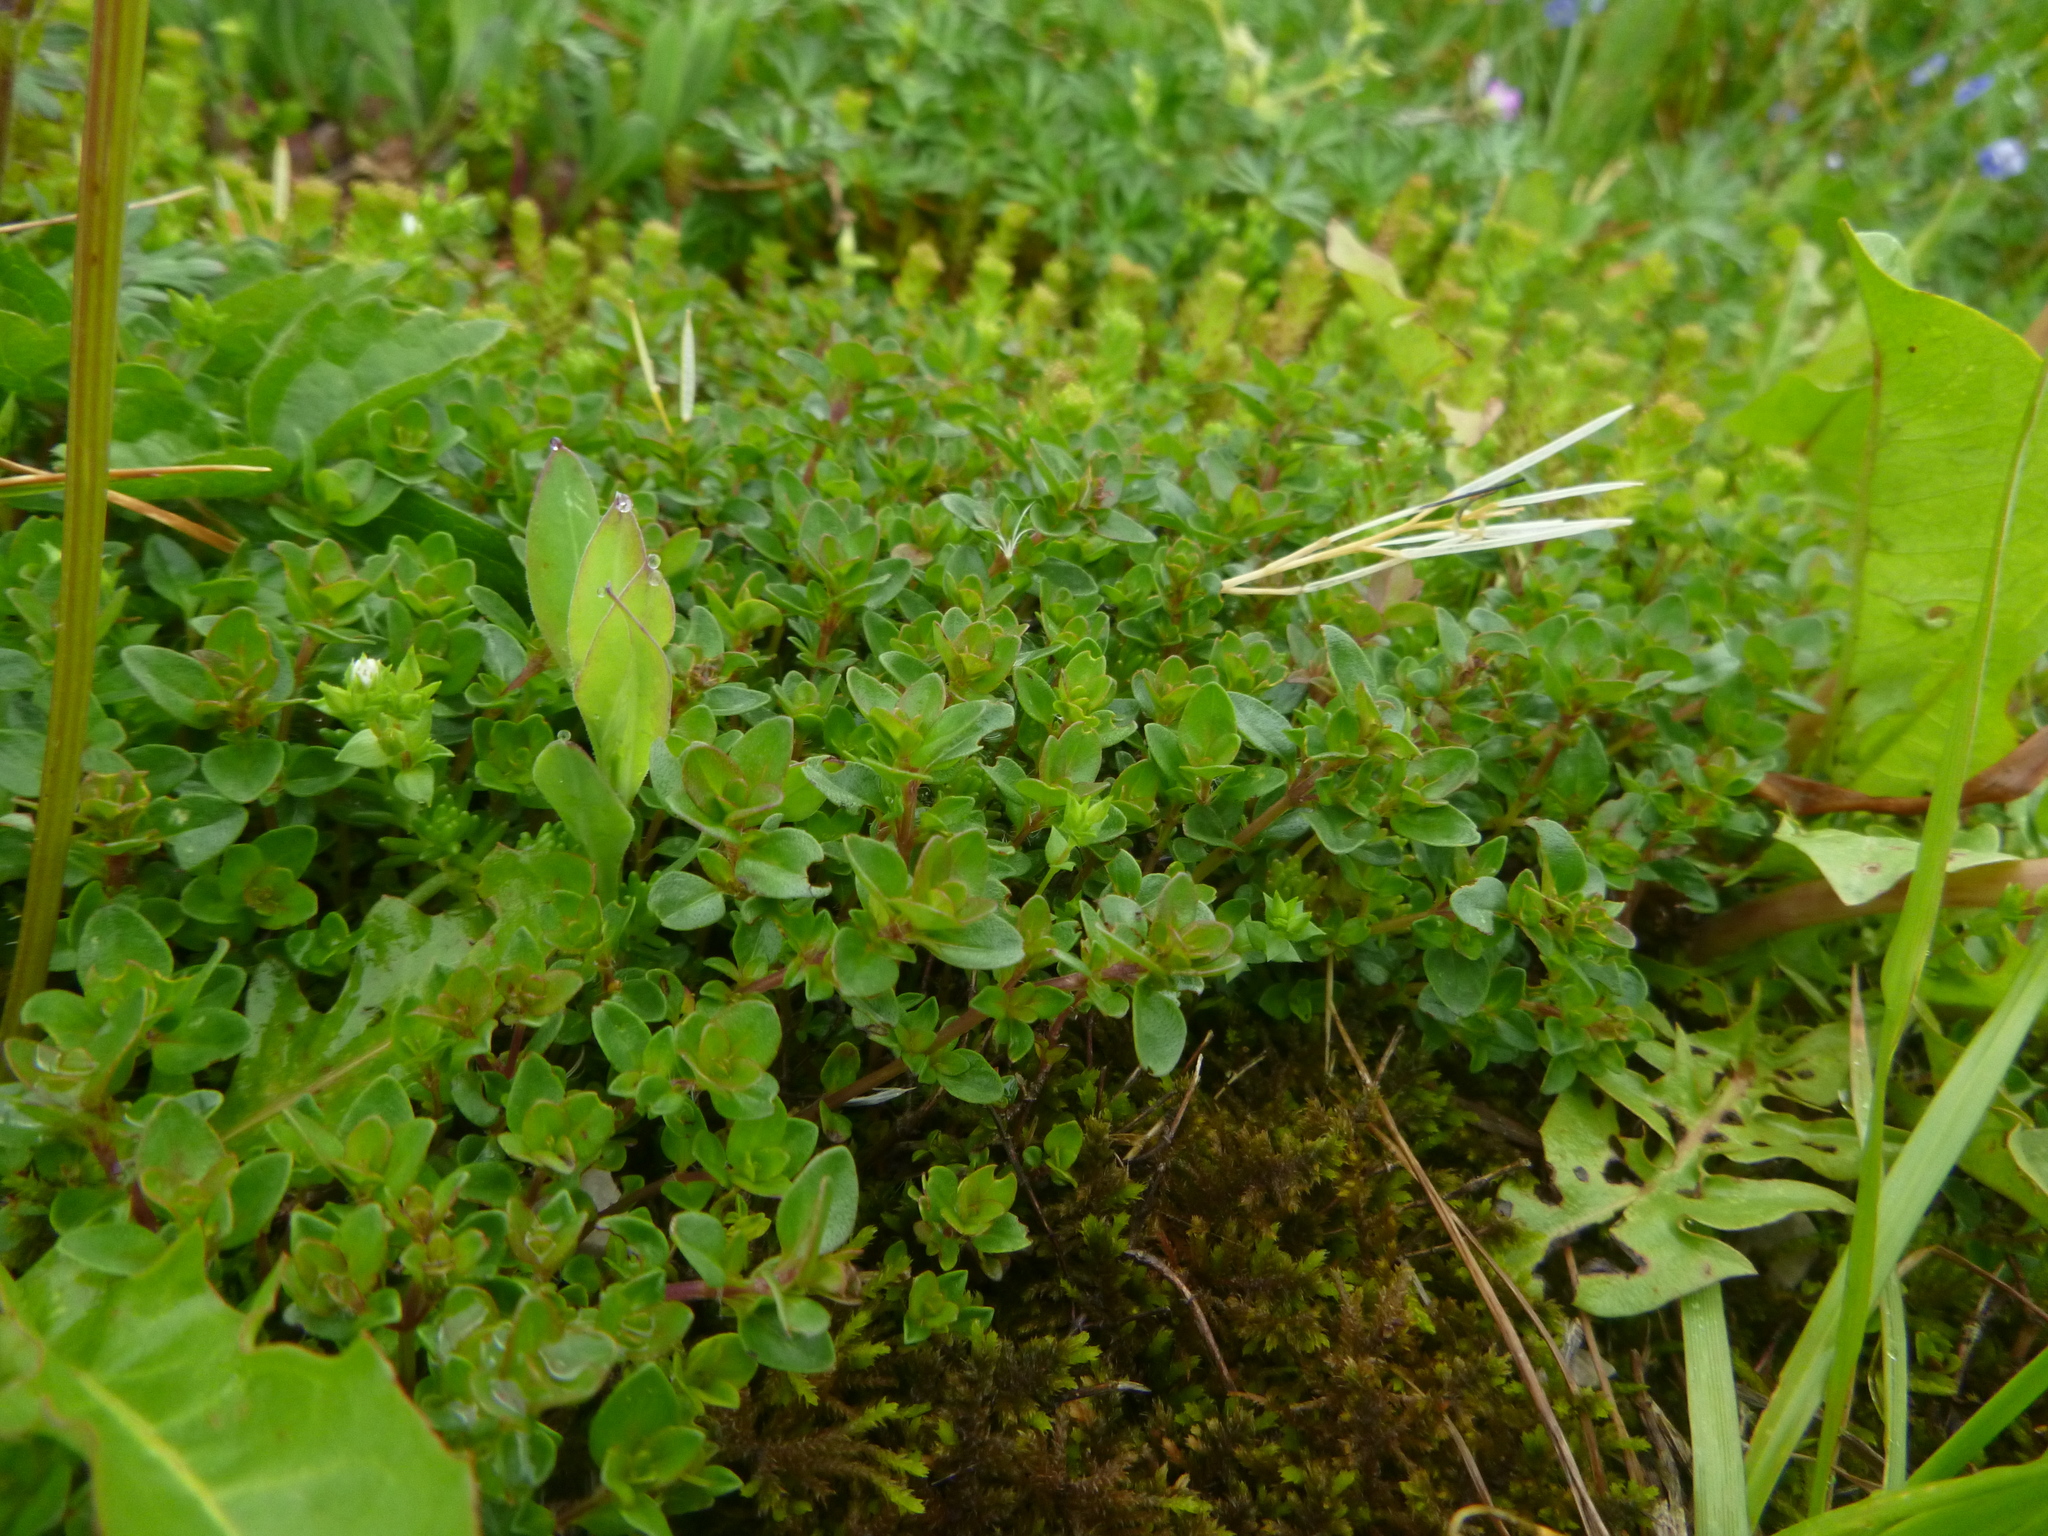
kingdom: Plantae
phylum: Tracheophyta
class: Magnoliopsida
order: Lamiales
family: Lamiaceae
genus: Thymus
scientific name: Thymus pulegioides
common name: Large thyme
